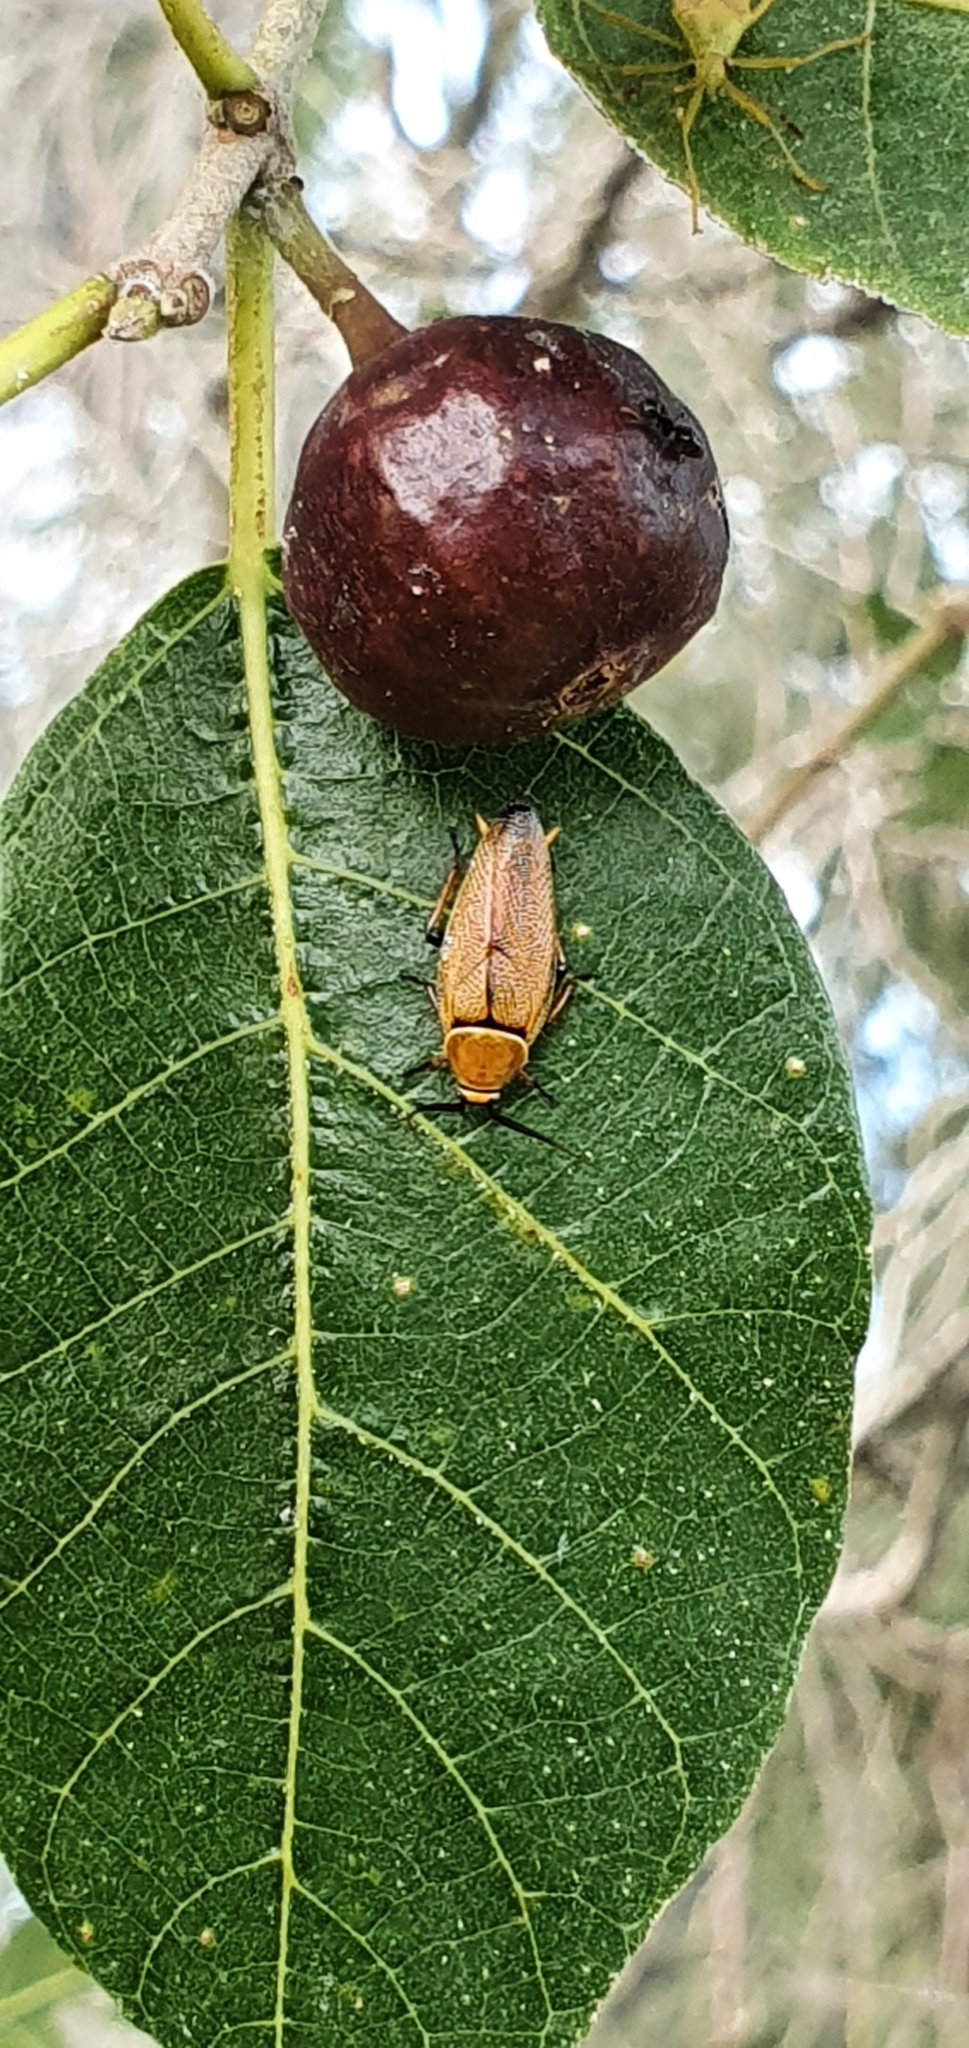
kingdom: Animalia
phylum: Arthropoda
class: Insecta
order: Blattodea
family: Ectobiidae
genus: Ellipsidion
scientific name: Ellipsidion humerale
